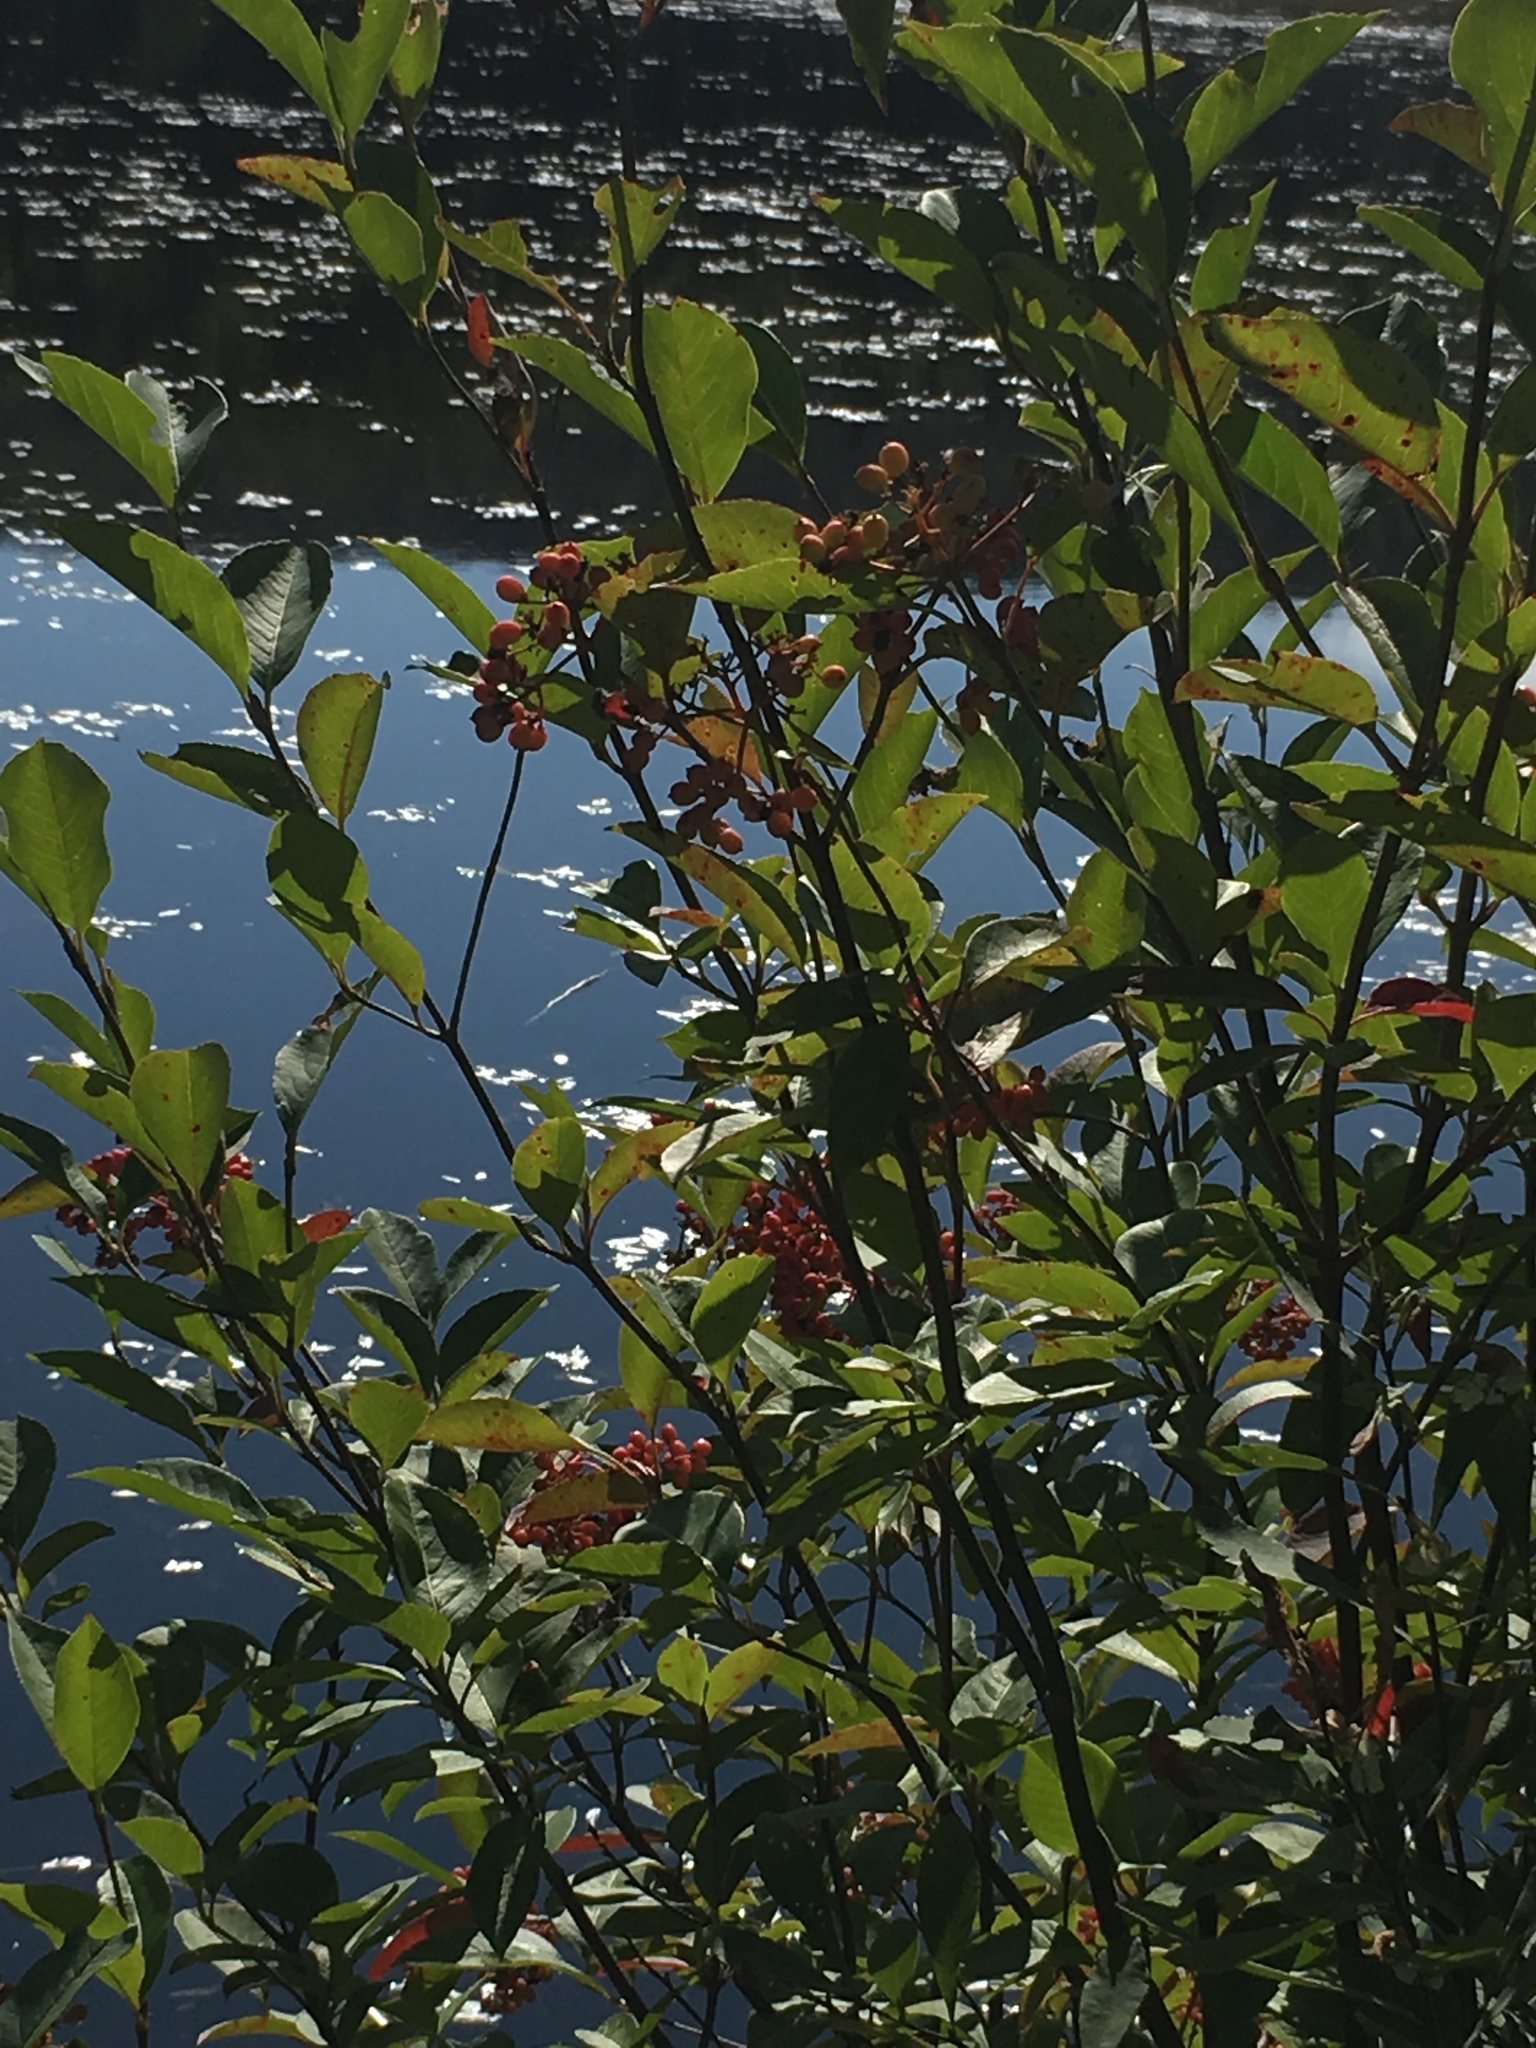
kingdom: Plantae
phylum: Tracheophyta
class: Magnoliopsida
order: Dipsacales
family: Viburnaceae
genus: Viburnum
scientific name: Viburnum cassinoides
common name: Swamp haw
